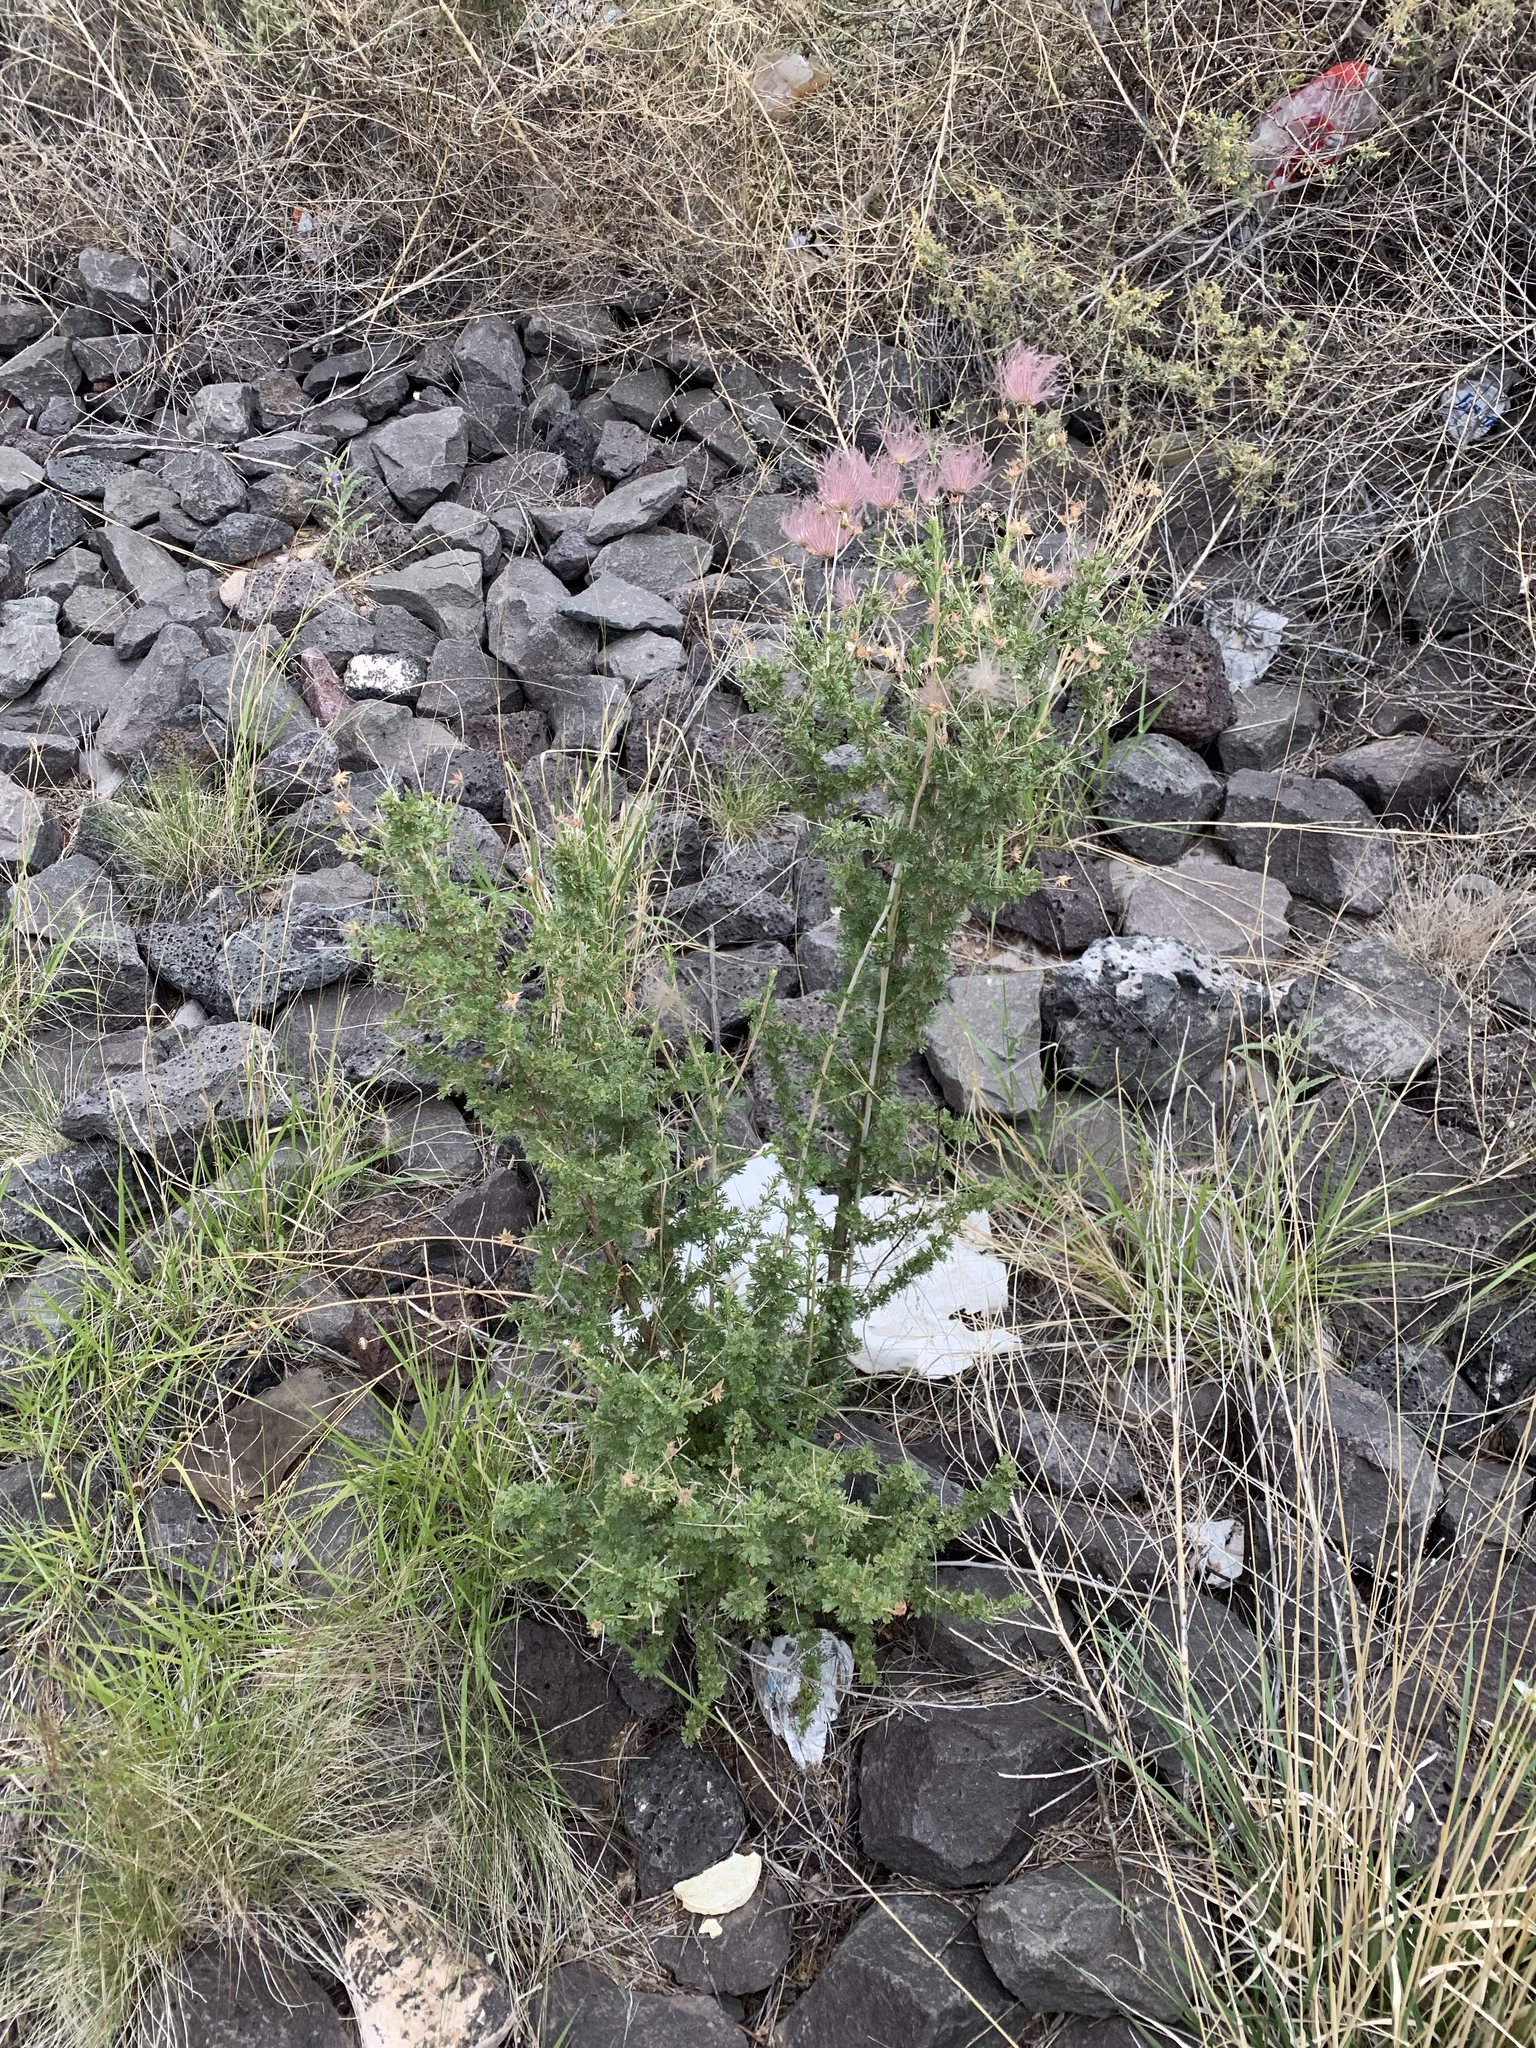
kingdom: Plantae
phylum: Tracheophyta
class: Magnoliopsida
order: Rosales
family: Rosaceae
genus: Fallugia
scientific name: Fallugia paradoxa
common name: Apache-plume
